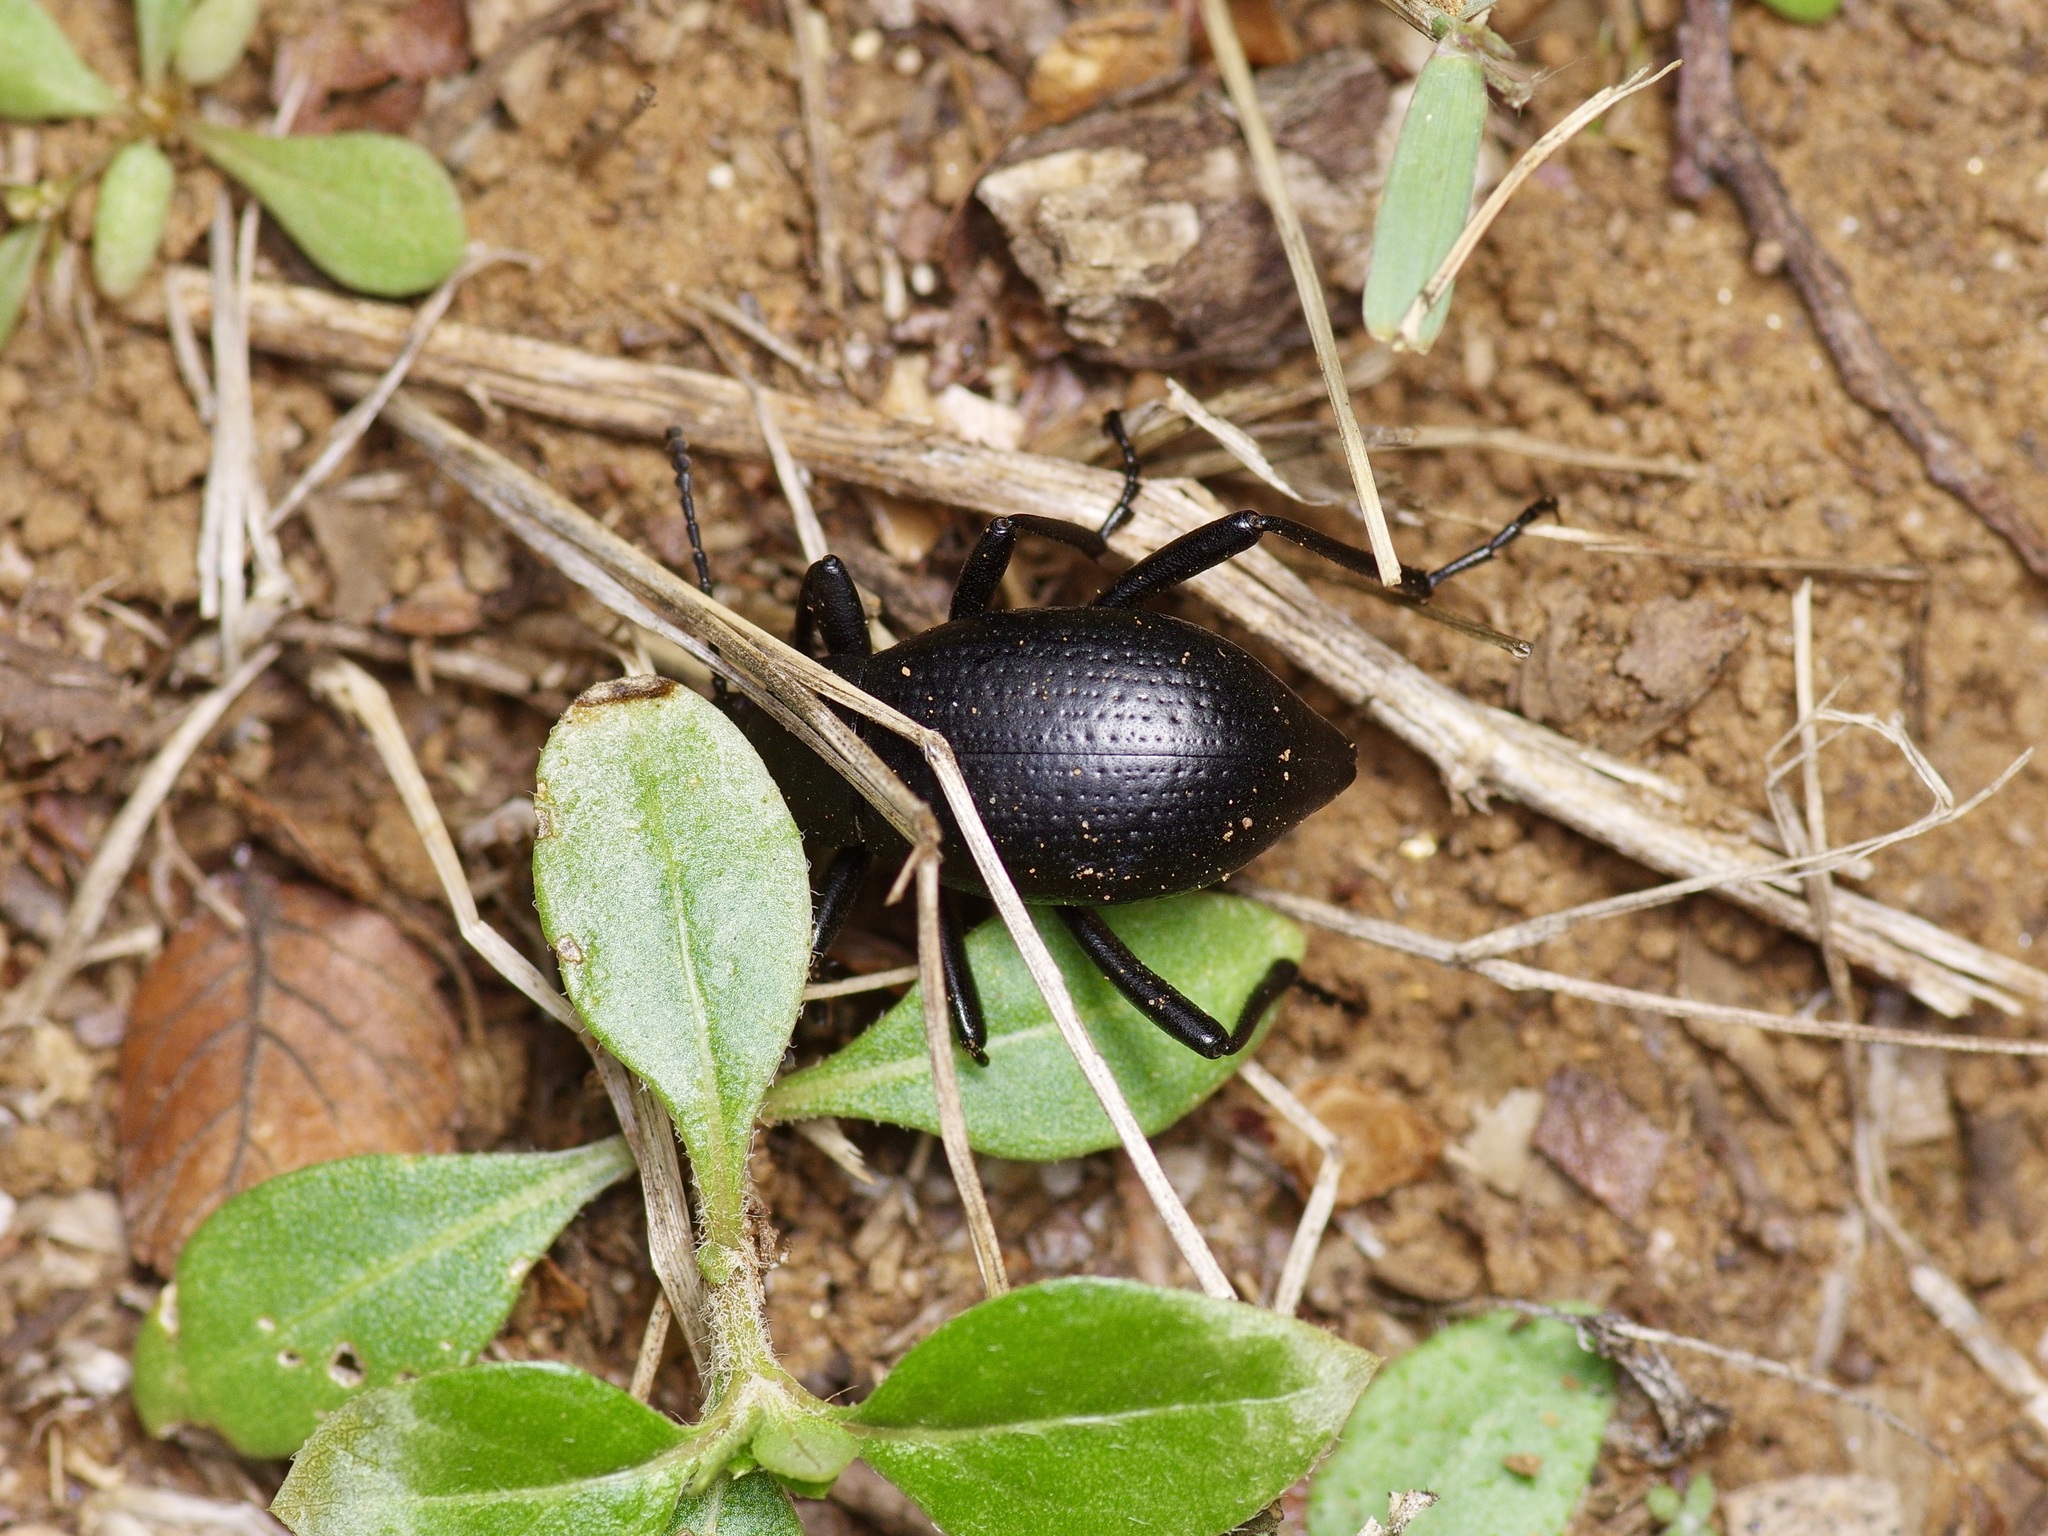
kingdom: Animalia
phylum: Arthropoda
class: Insecta
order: Coleoptera
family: Tenebrionidae
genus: Eleodes
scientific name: Eleodes goryi
